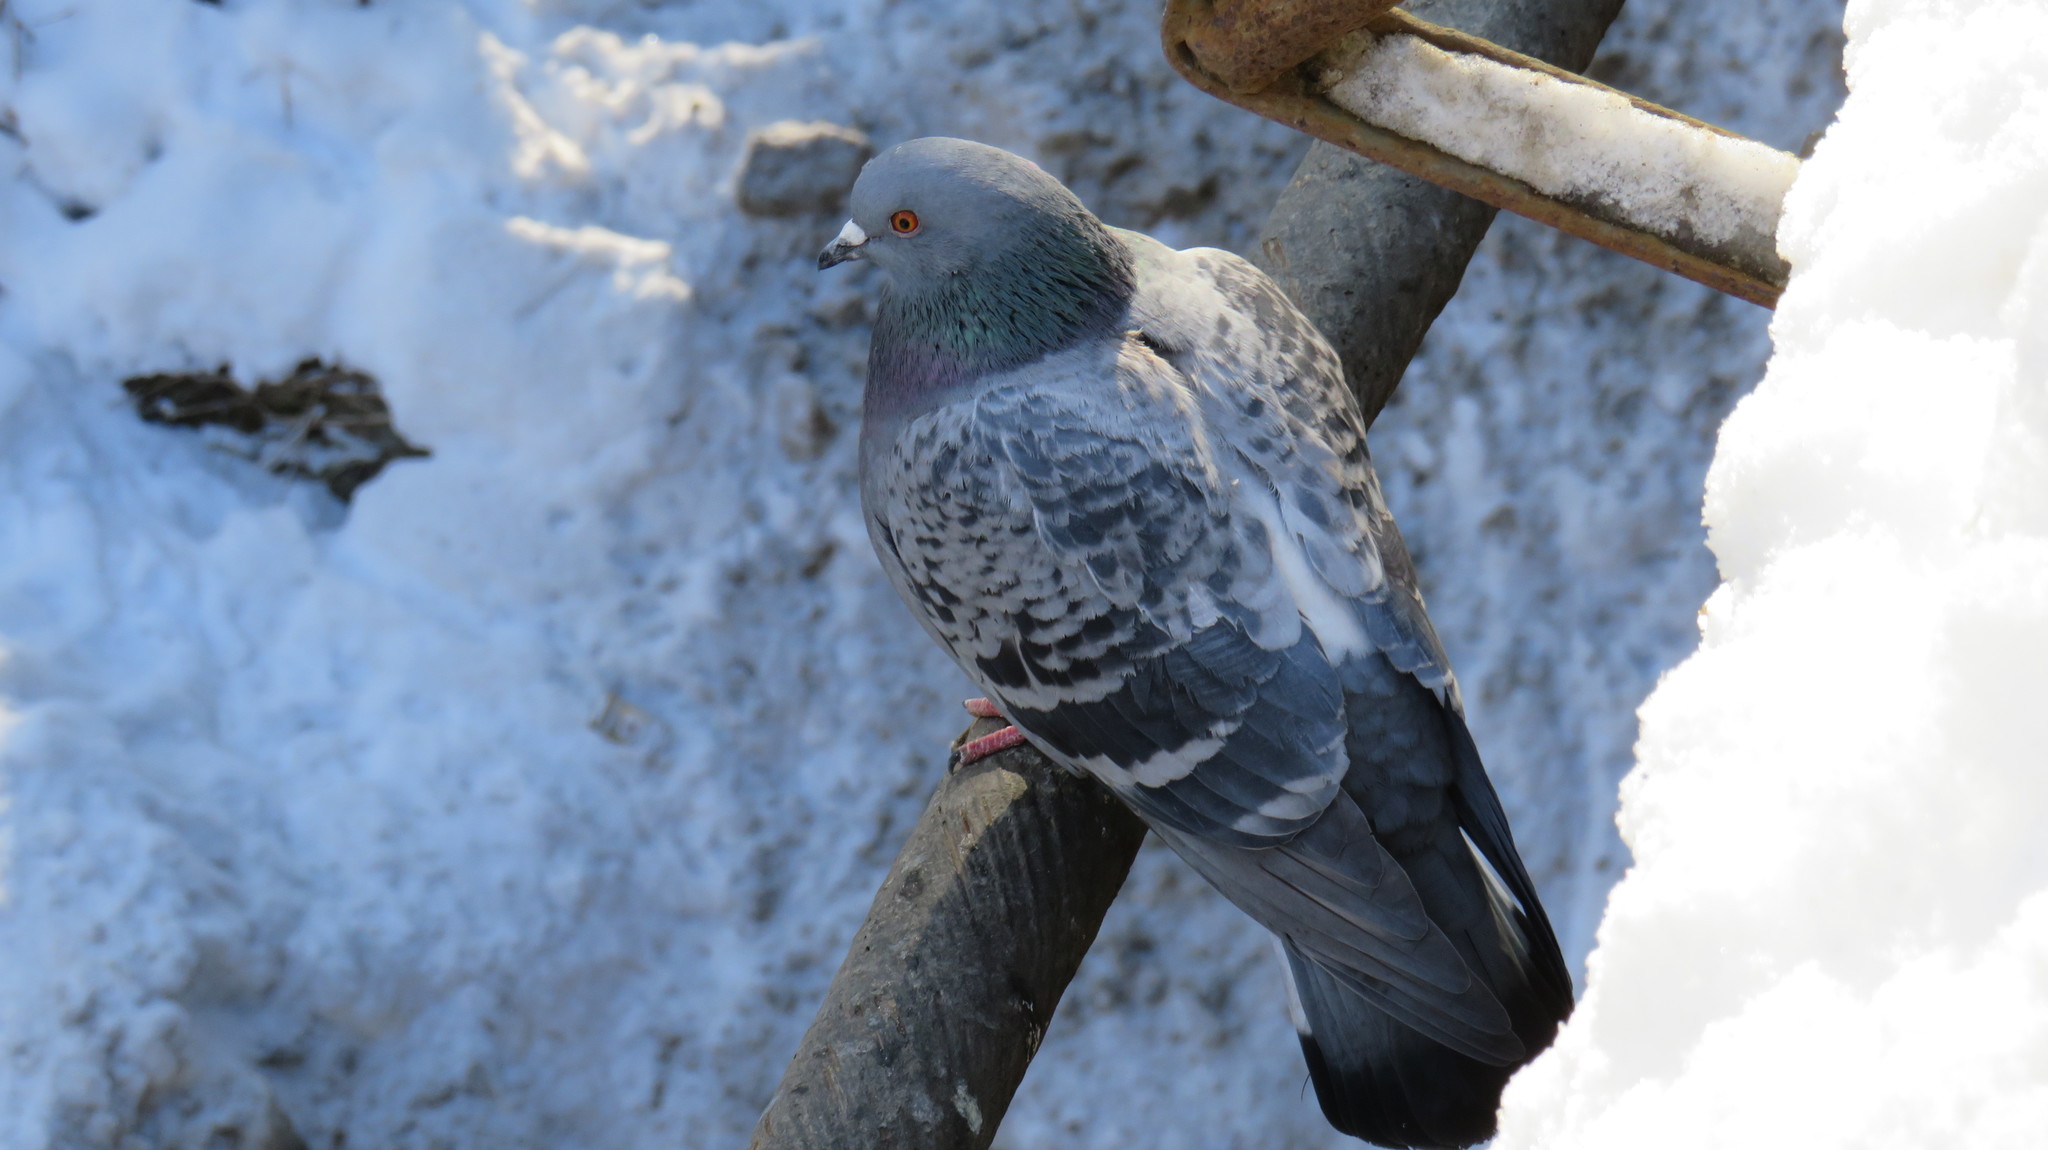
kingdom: Animalia
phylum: Chordata
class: Aves
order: Columbiformes
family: Columbidae
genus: Columba
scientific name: Columba livia
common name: Rock pigeon
